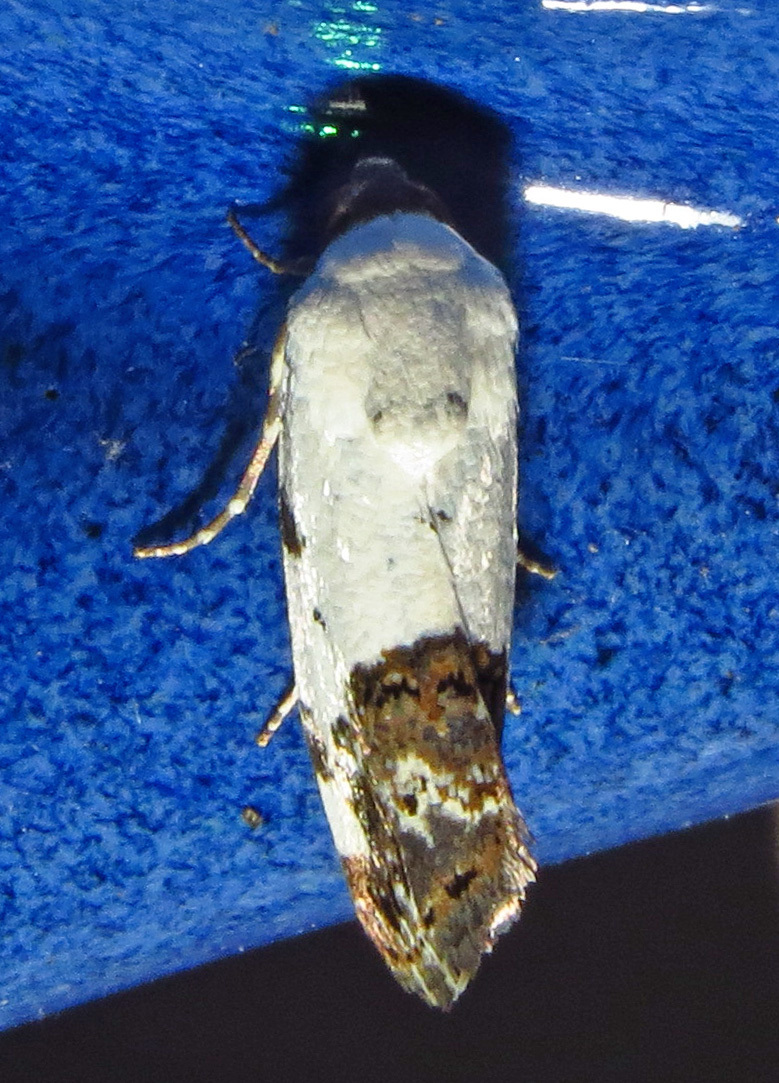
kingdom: Animalia
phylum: Arthropoda
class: Insecta
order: Lepidoptera
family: Noctuidae
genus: Acontia
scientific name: Acontia aprica
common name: Nun
